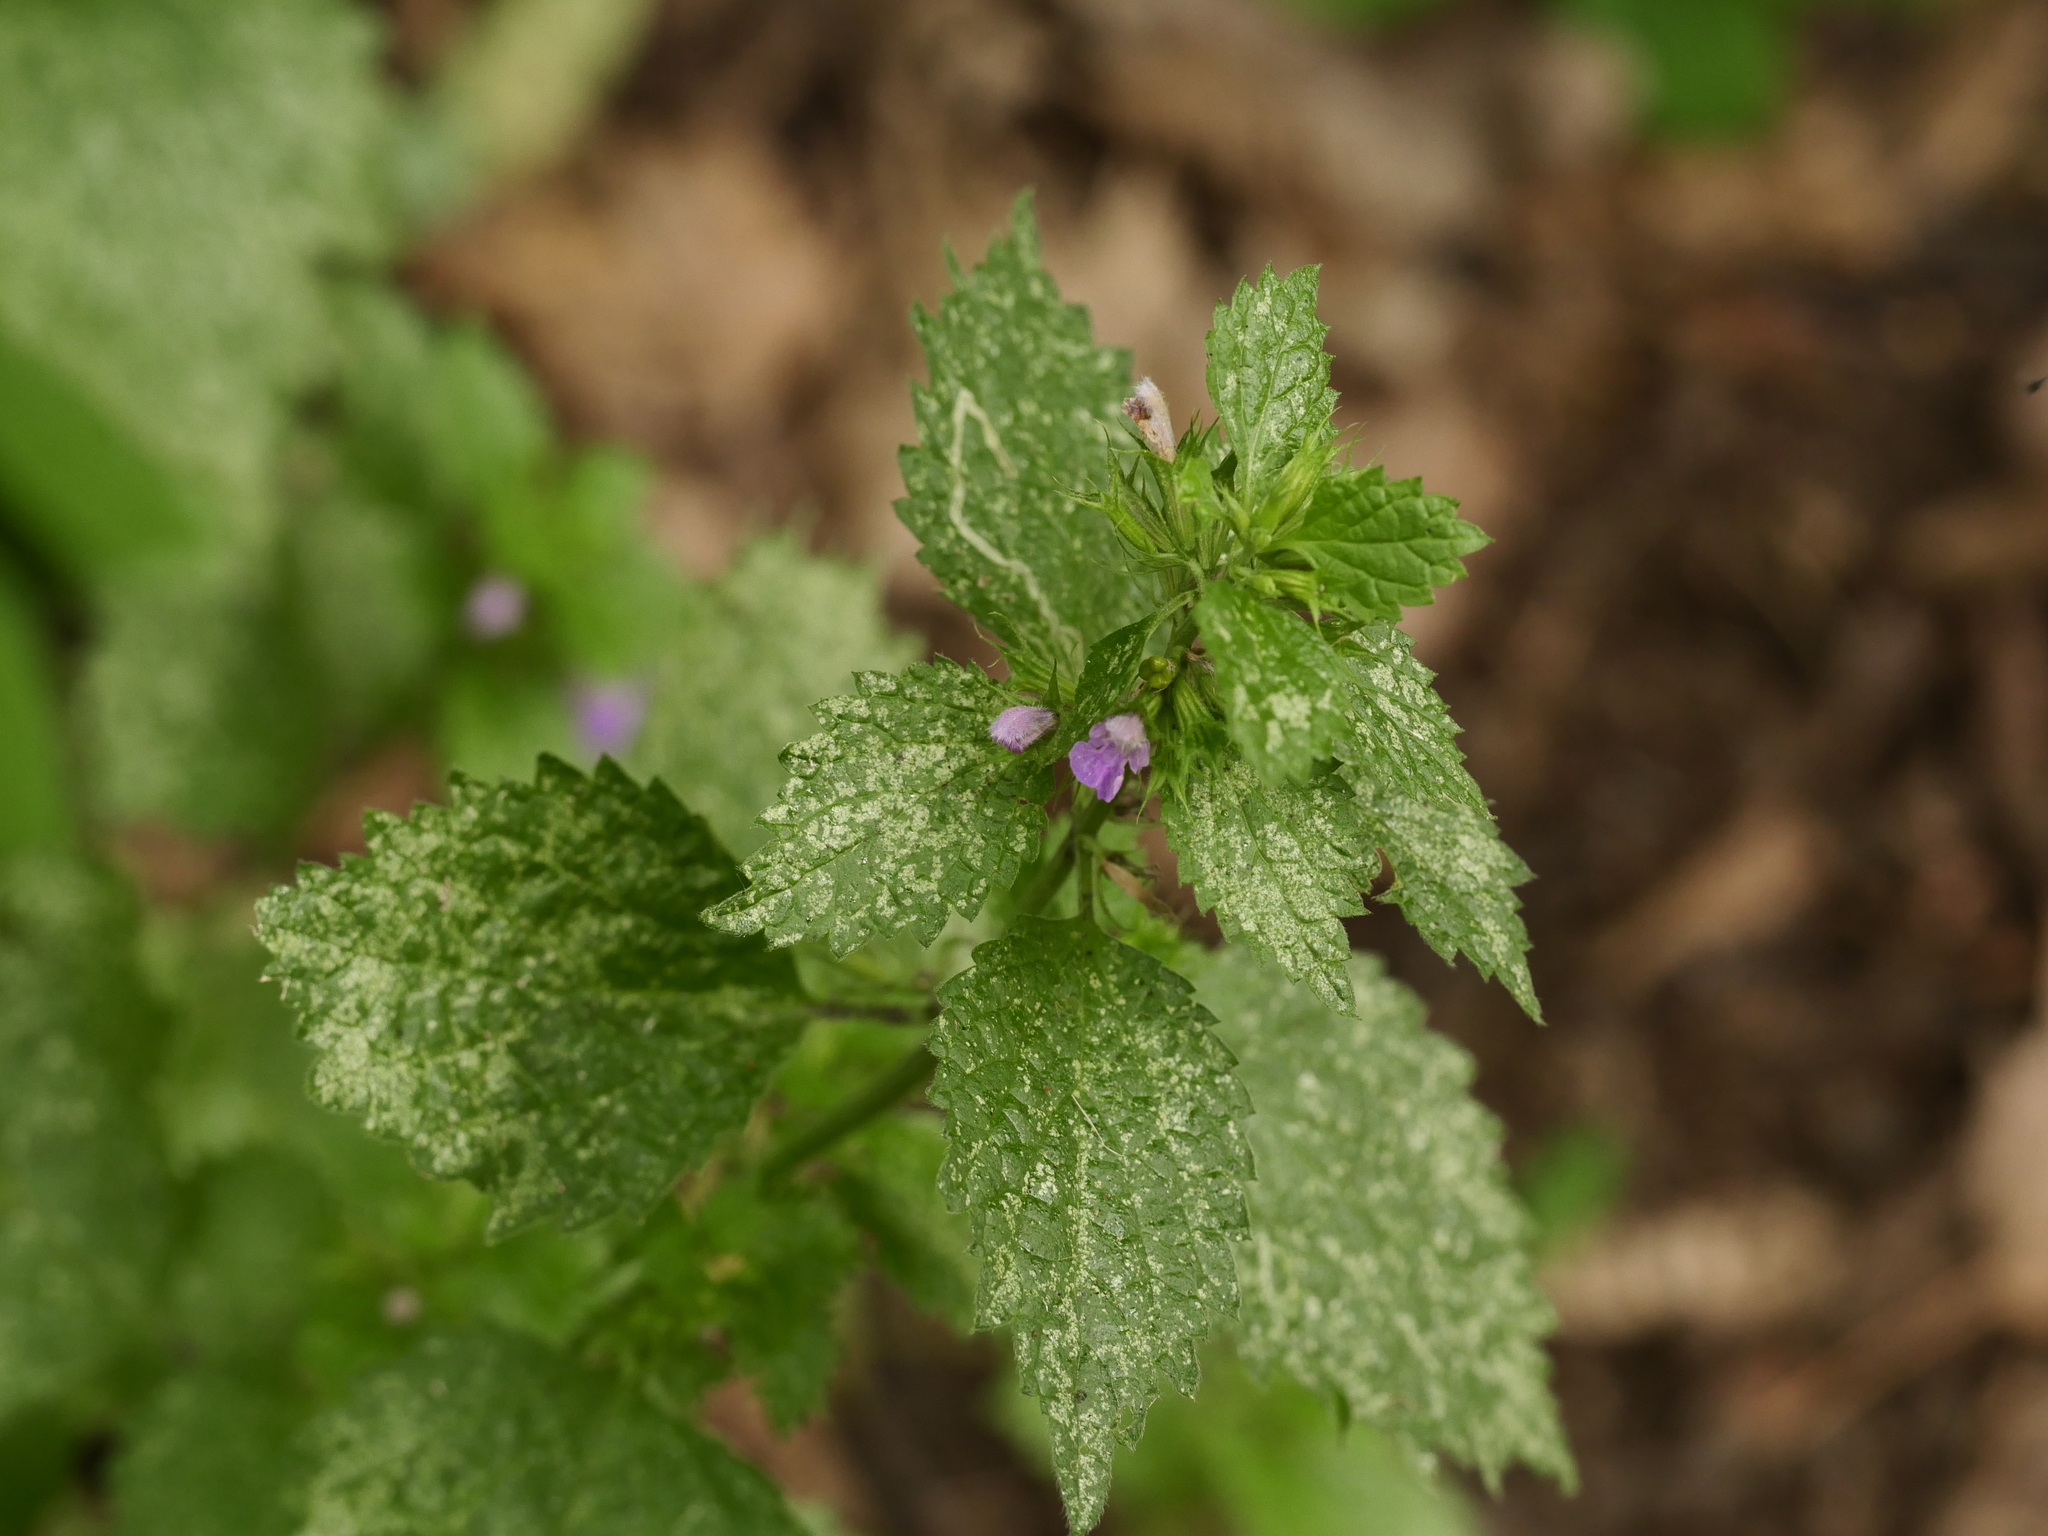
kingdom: Plantae
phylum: Tracheophyta
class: Magnoliopsida
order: Lamiales
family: Lamiaceae
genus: Ballota
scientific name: Ballota nigra
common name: Black horehound
